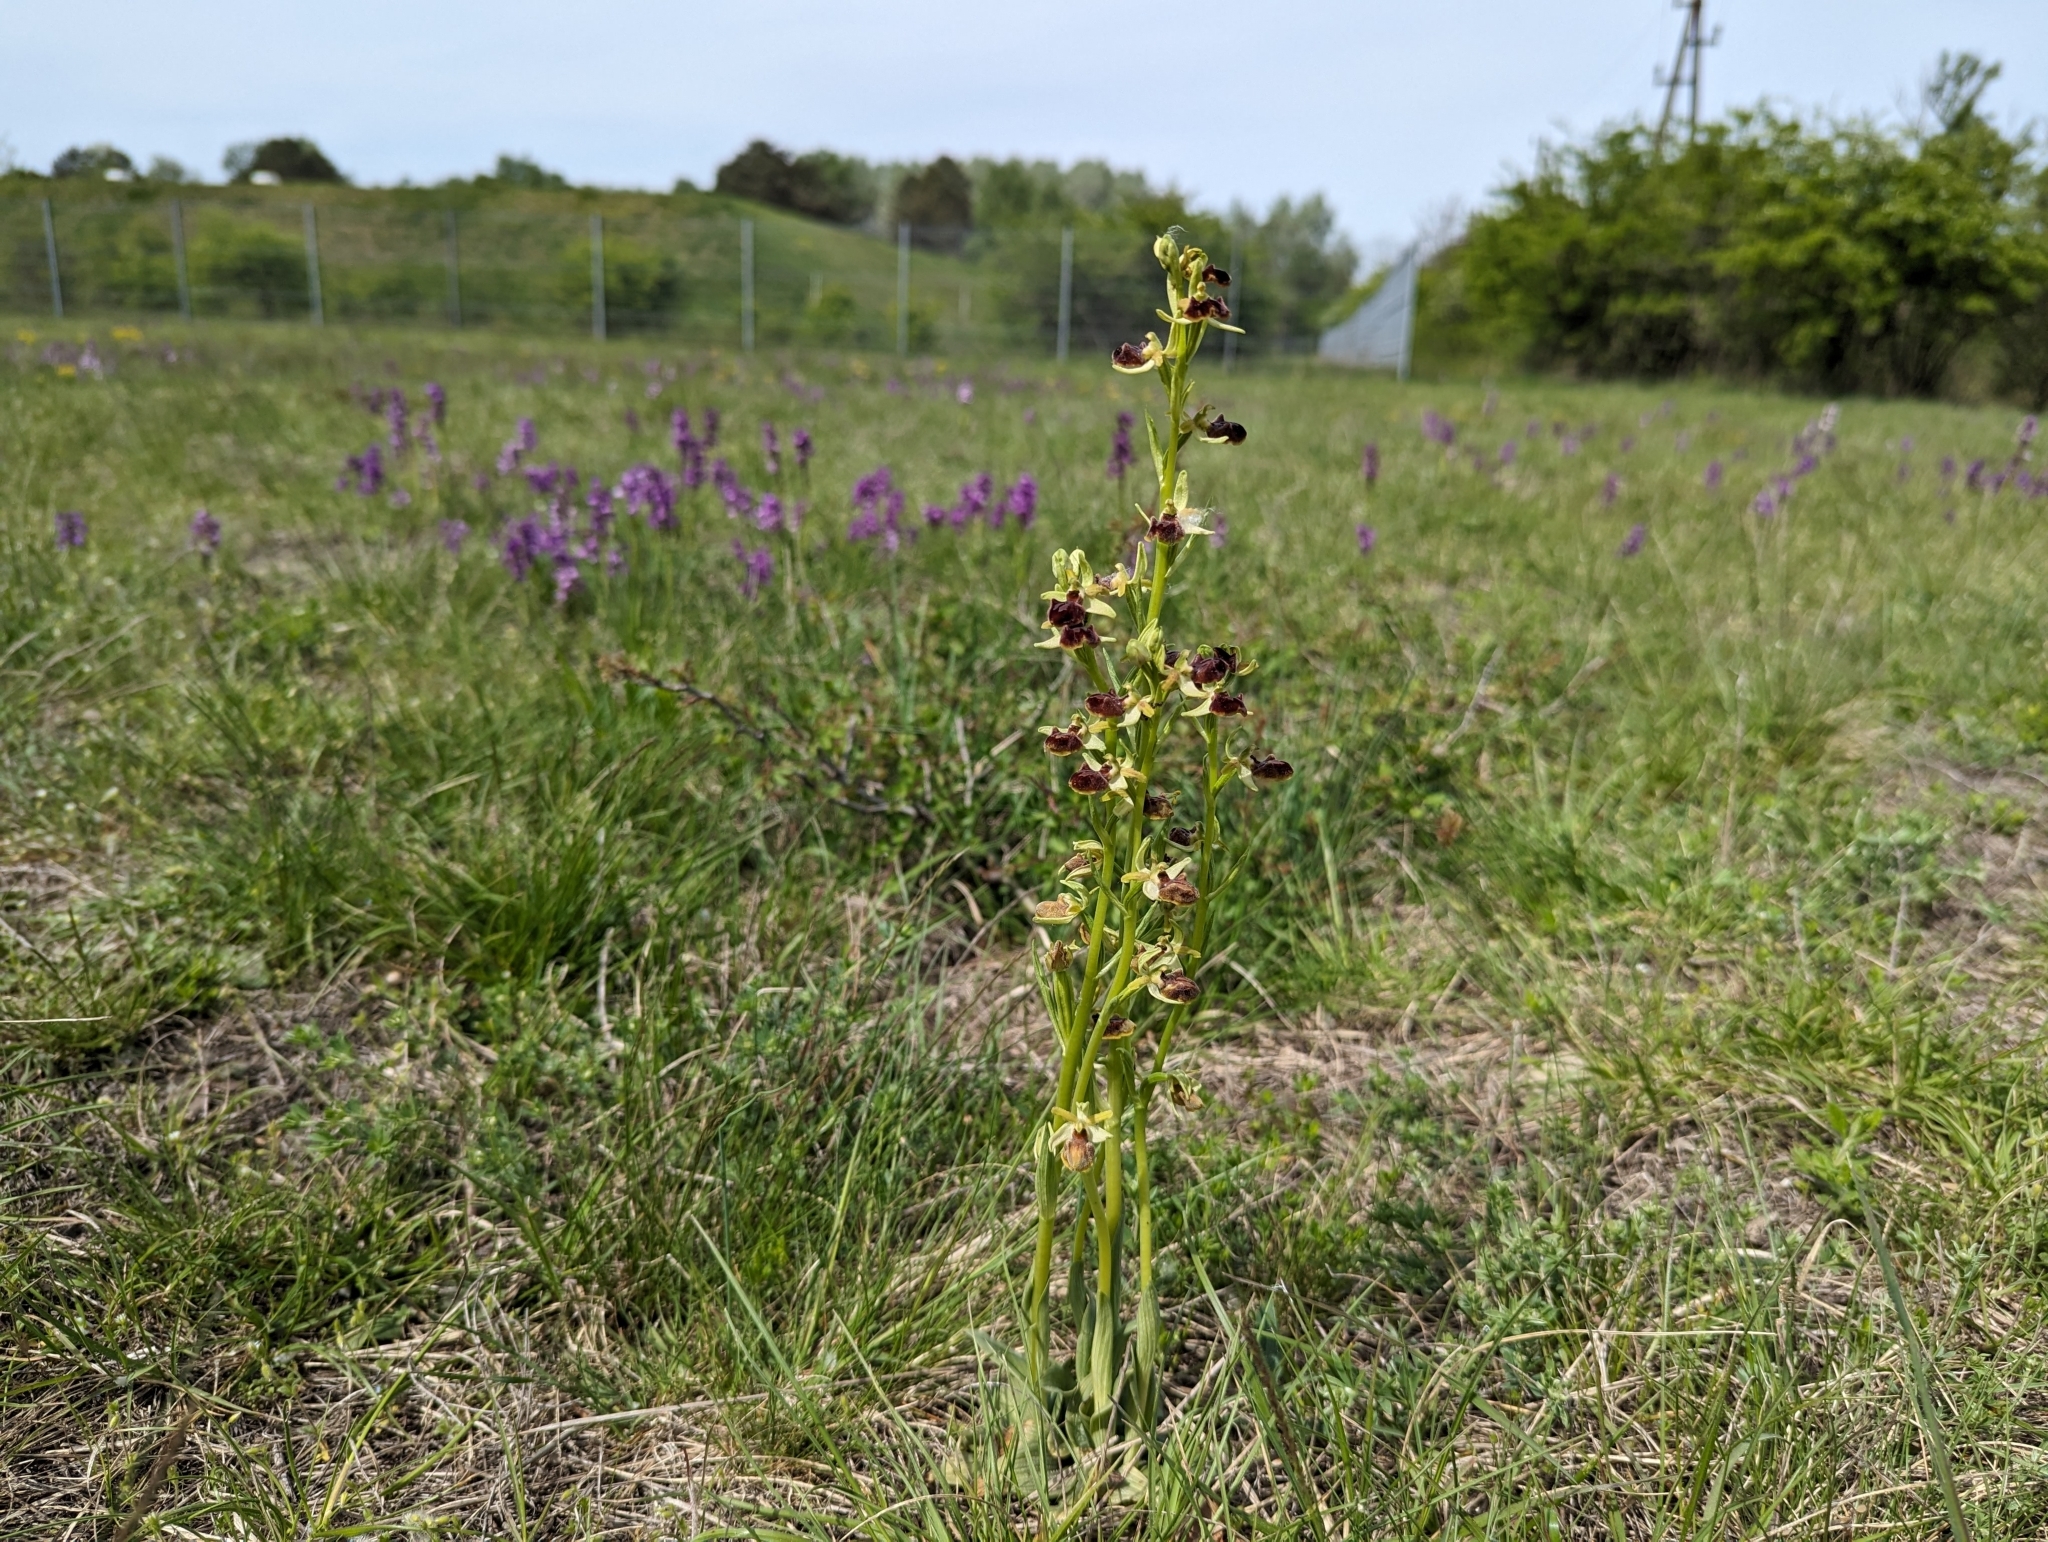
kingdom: Plantae
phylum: Tracheophyta
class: Liliopsida
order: Asparagales
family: Orchidaceae
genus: Ophrys
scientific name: Ophrys sphegodes
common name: Early spider-orchid
